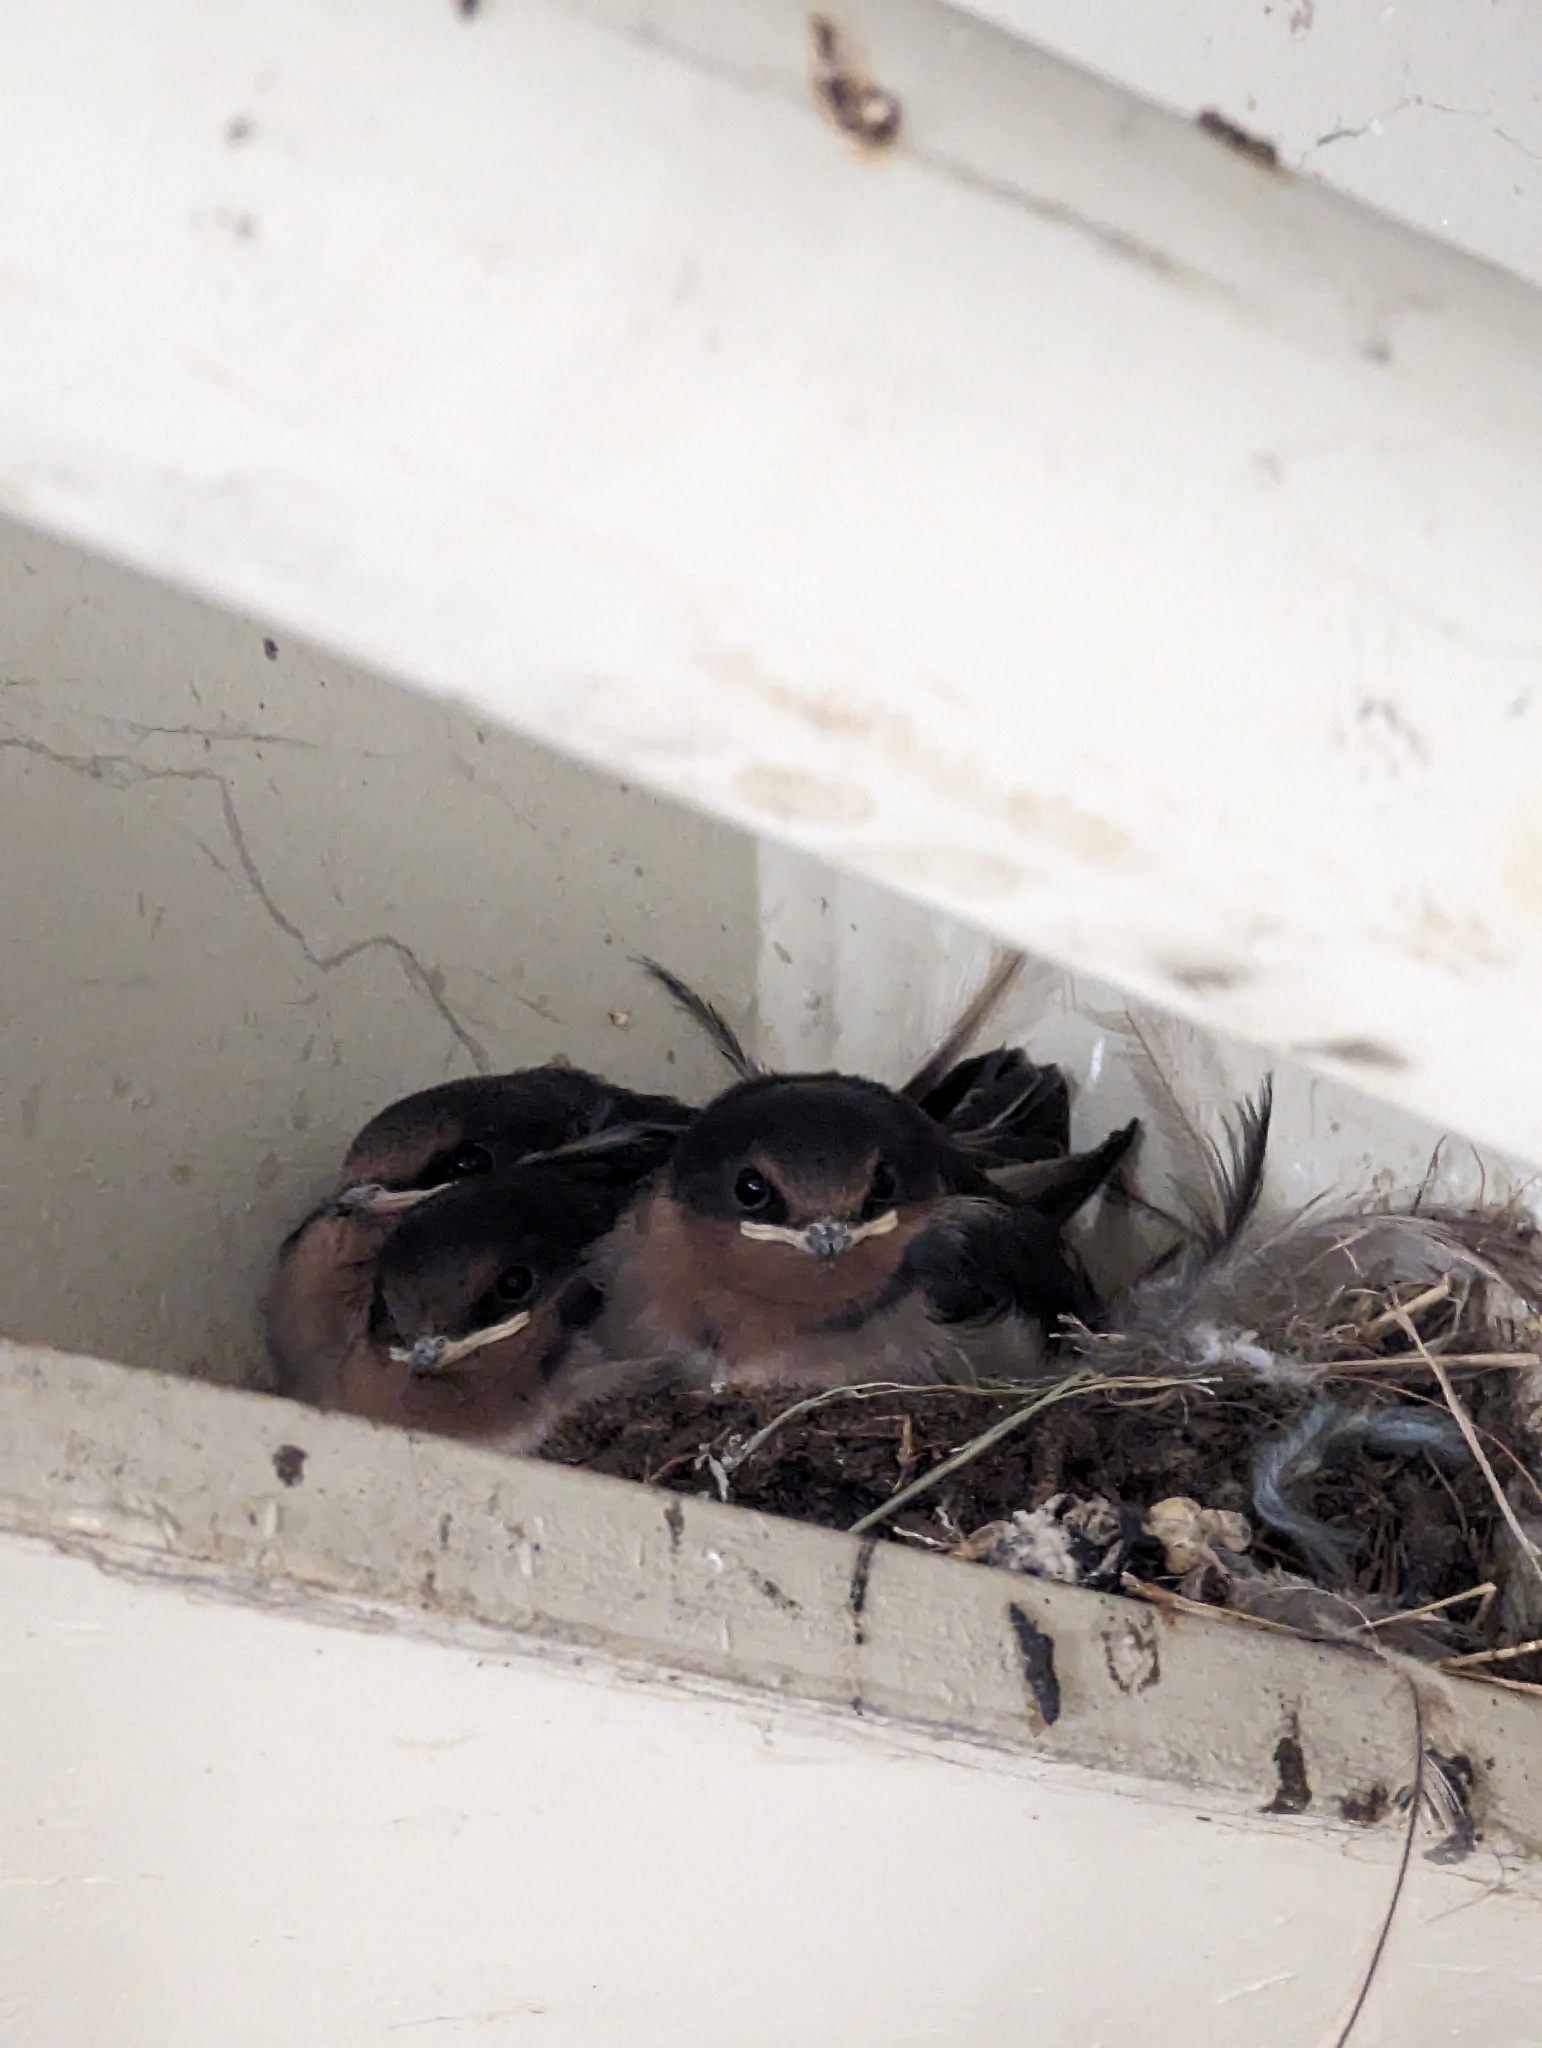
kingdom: Animalia
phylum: Chordata
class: Aves
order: Passeriformes
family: Hirundinidae
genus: Hirundo
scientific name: Hirundo neoxena
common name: Welcome swallow
